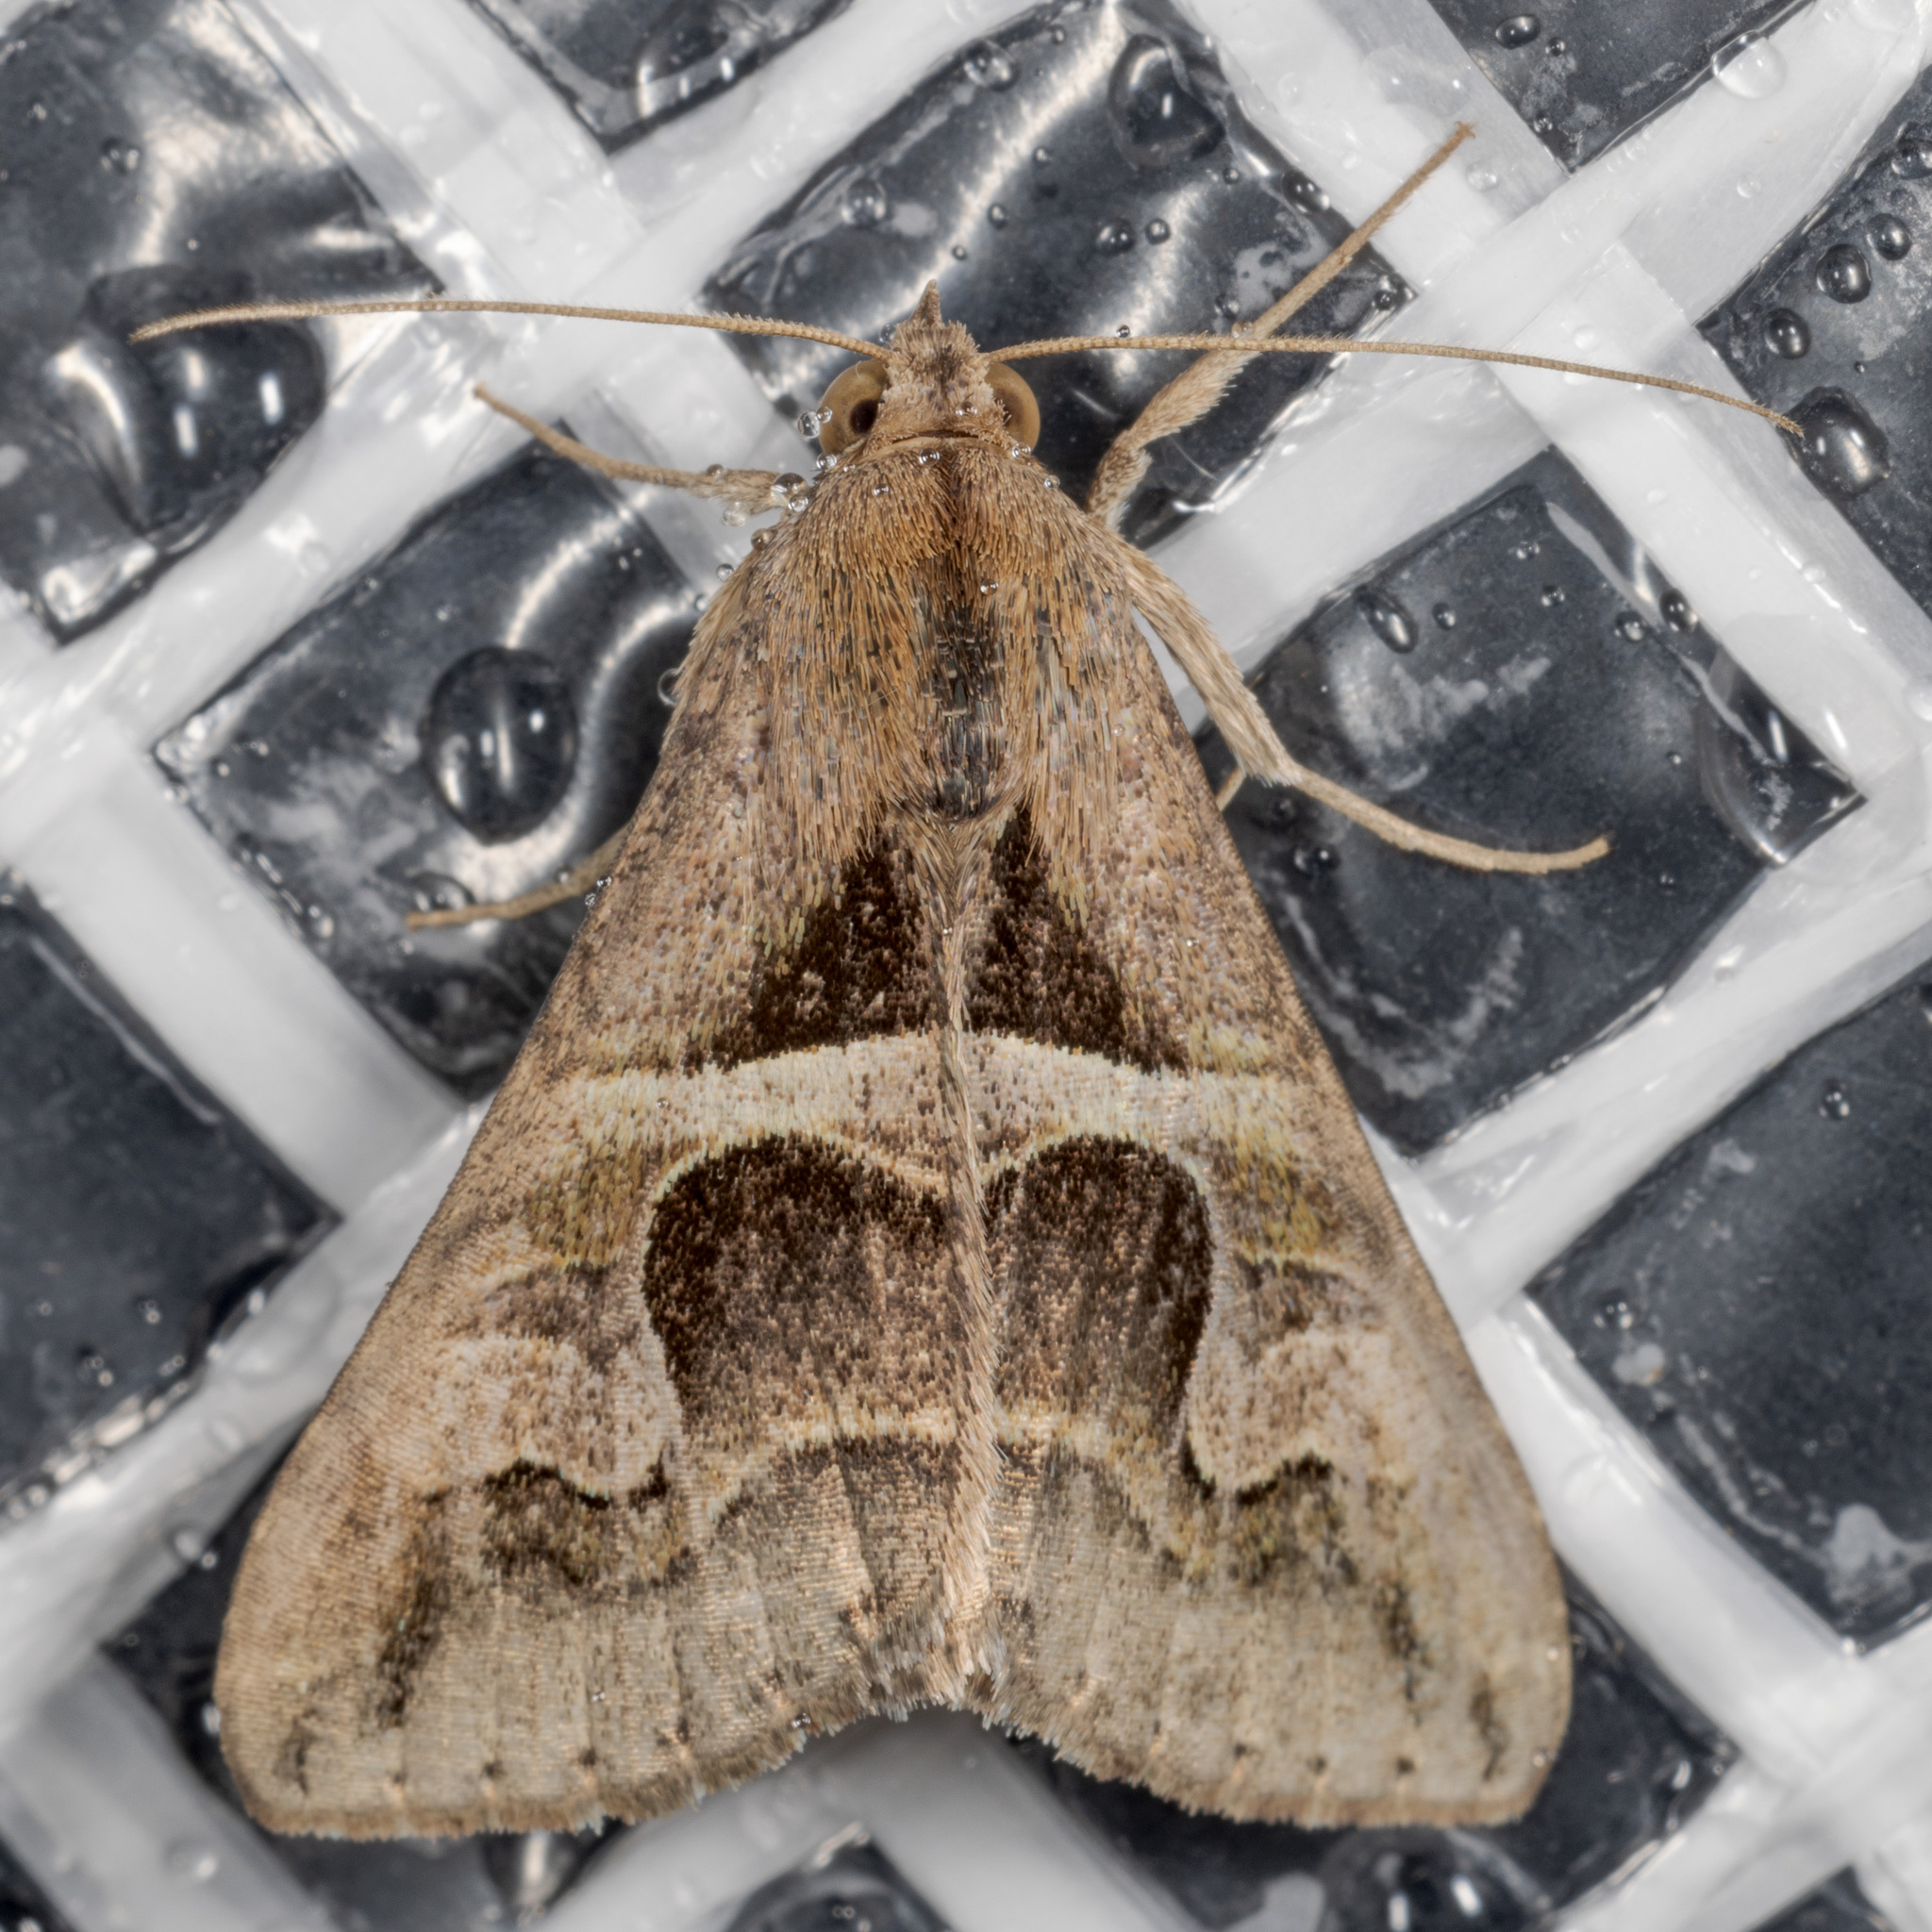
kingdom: Animalia
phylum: Arthropoda
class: Insecta
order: Lepidoptera
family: Erebidae
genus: Melipotis
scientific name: Melipotis cellaris
